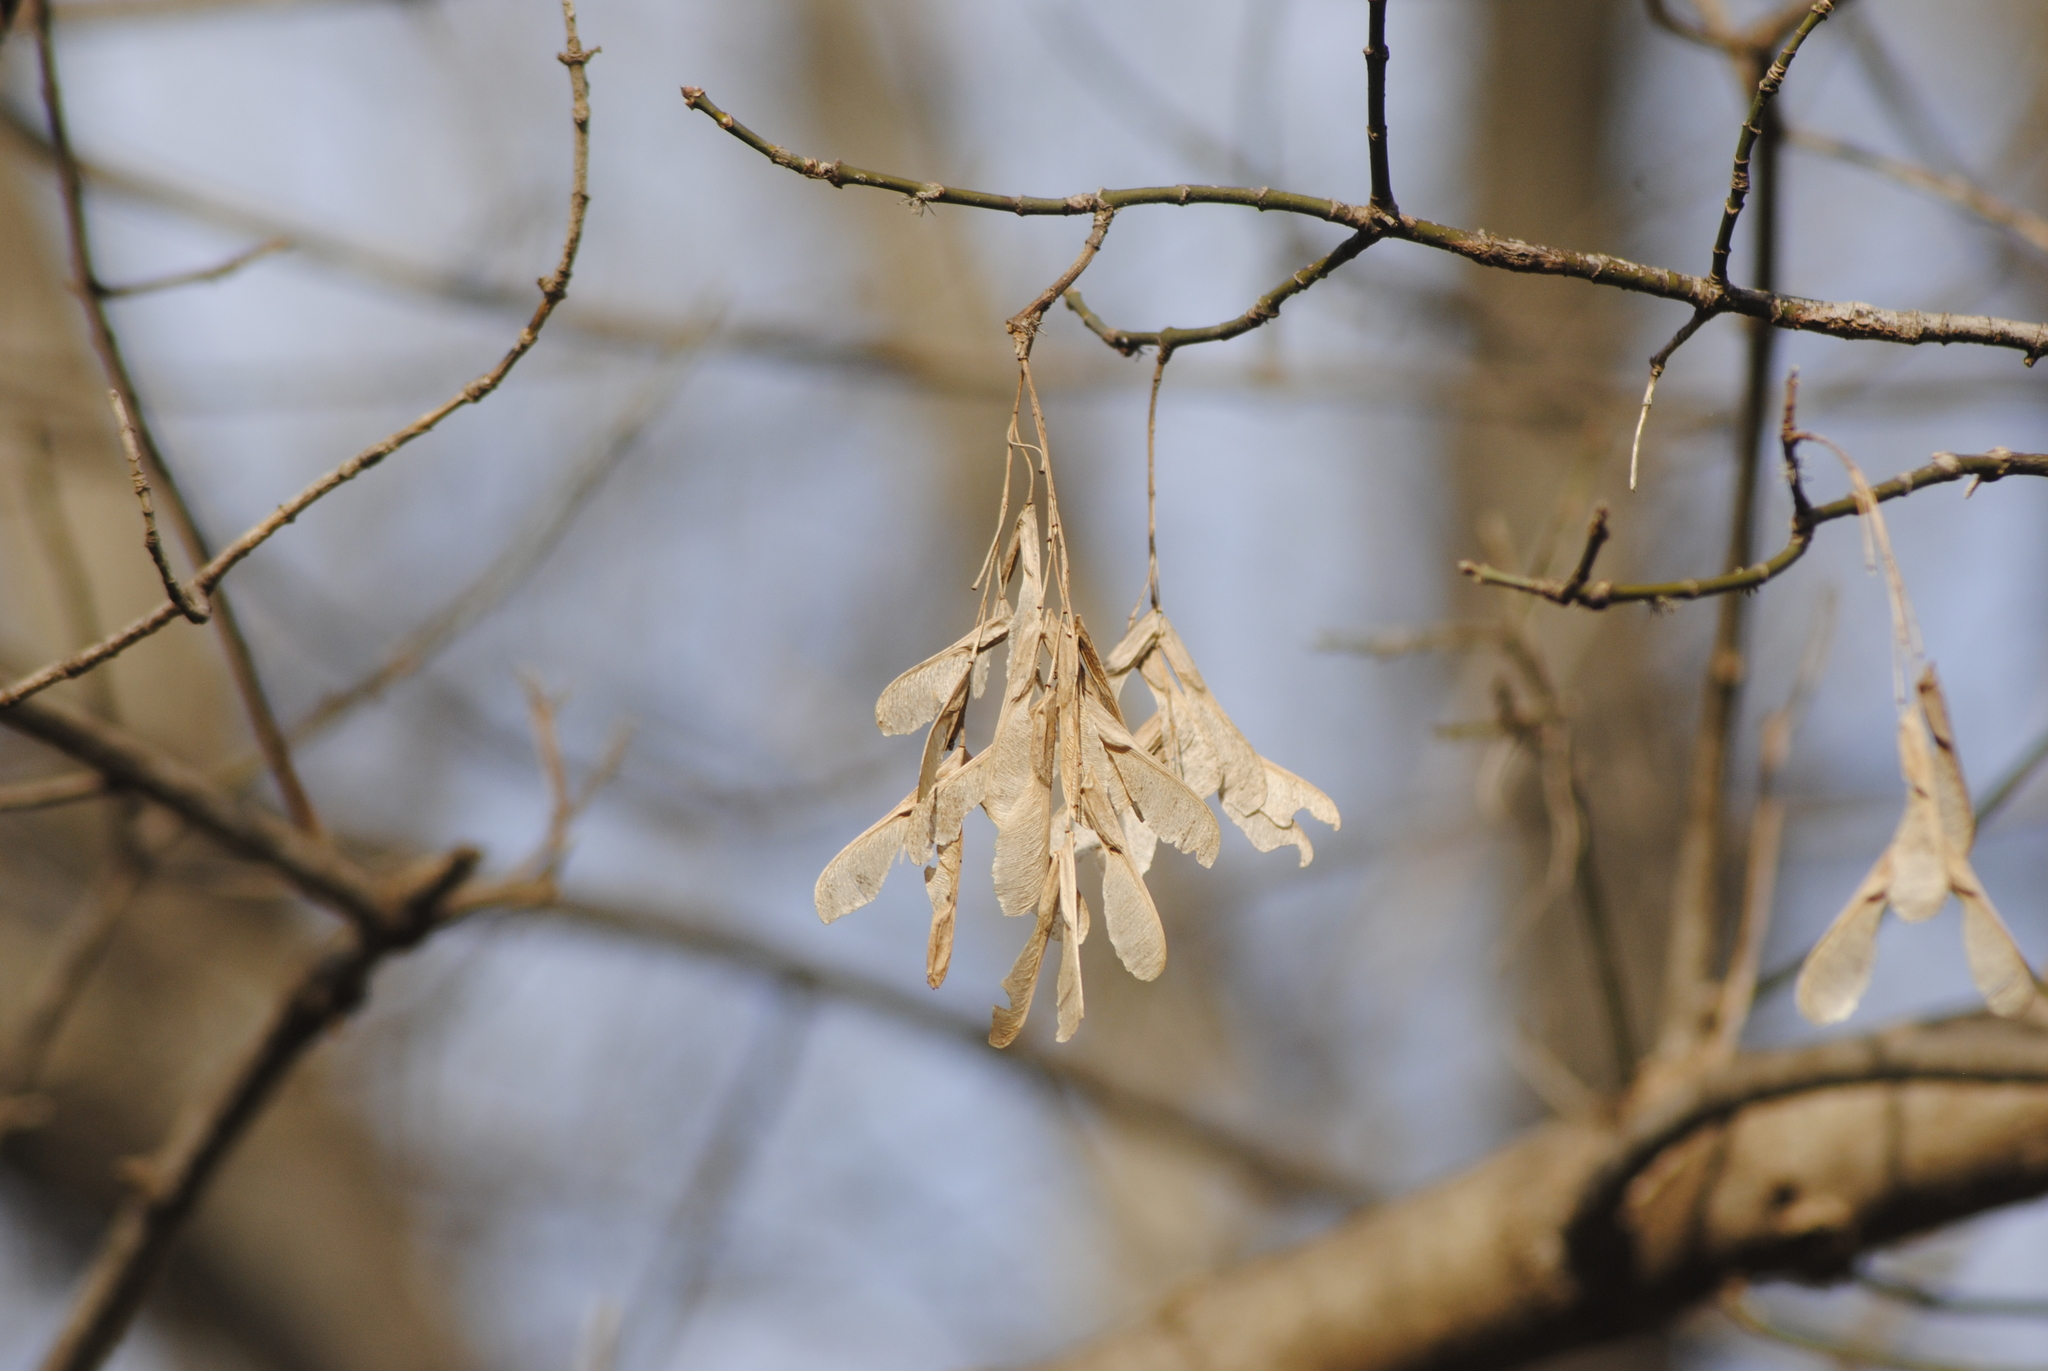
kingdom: Plantae
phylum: Tracheophyta
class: Magnoliopsida
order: Sapindales
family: Sapindaceae
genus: Acer
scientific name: Acer negundo
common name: Ashleaf maple
